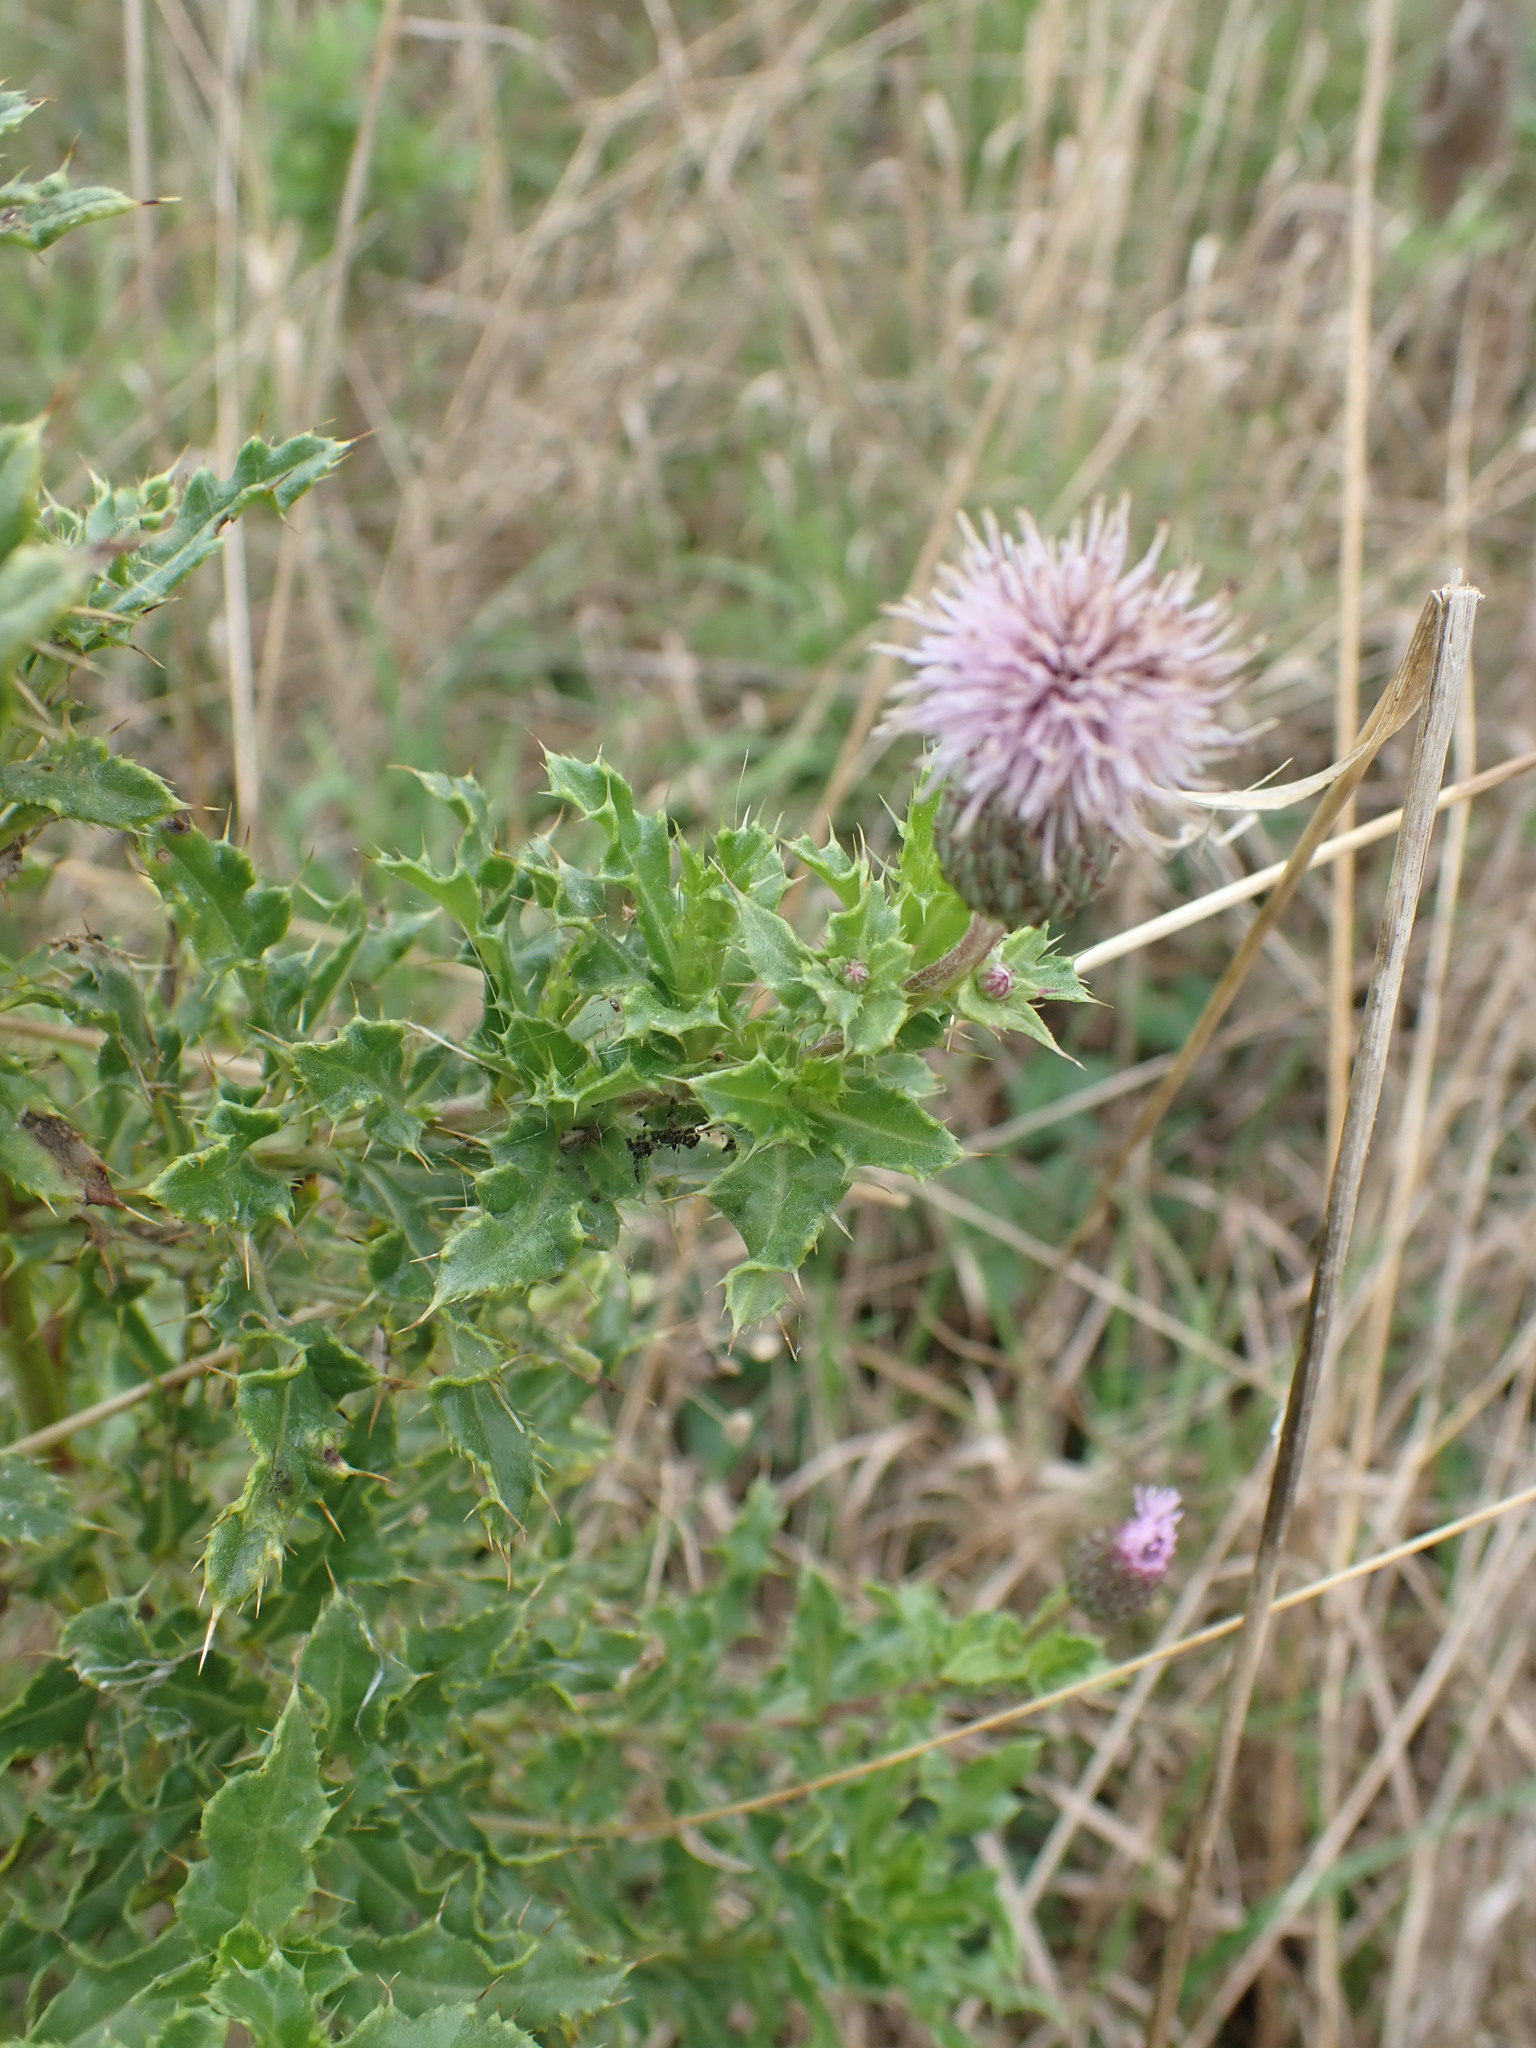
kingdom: Plantae
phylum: Tracheophyta
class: Magnoliopsida
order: Asterales
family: Asteraceae
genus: Cirsium
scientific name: Cirsium arvense
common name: Creeping thistle
